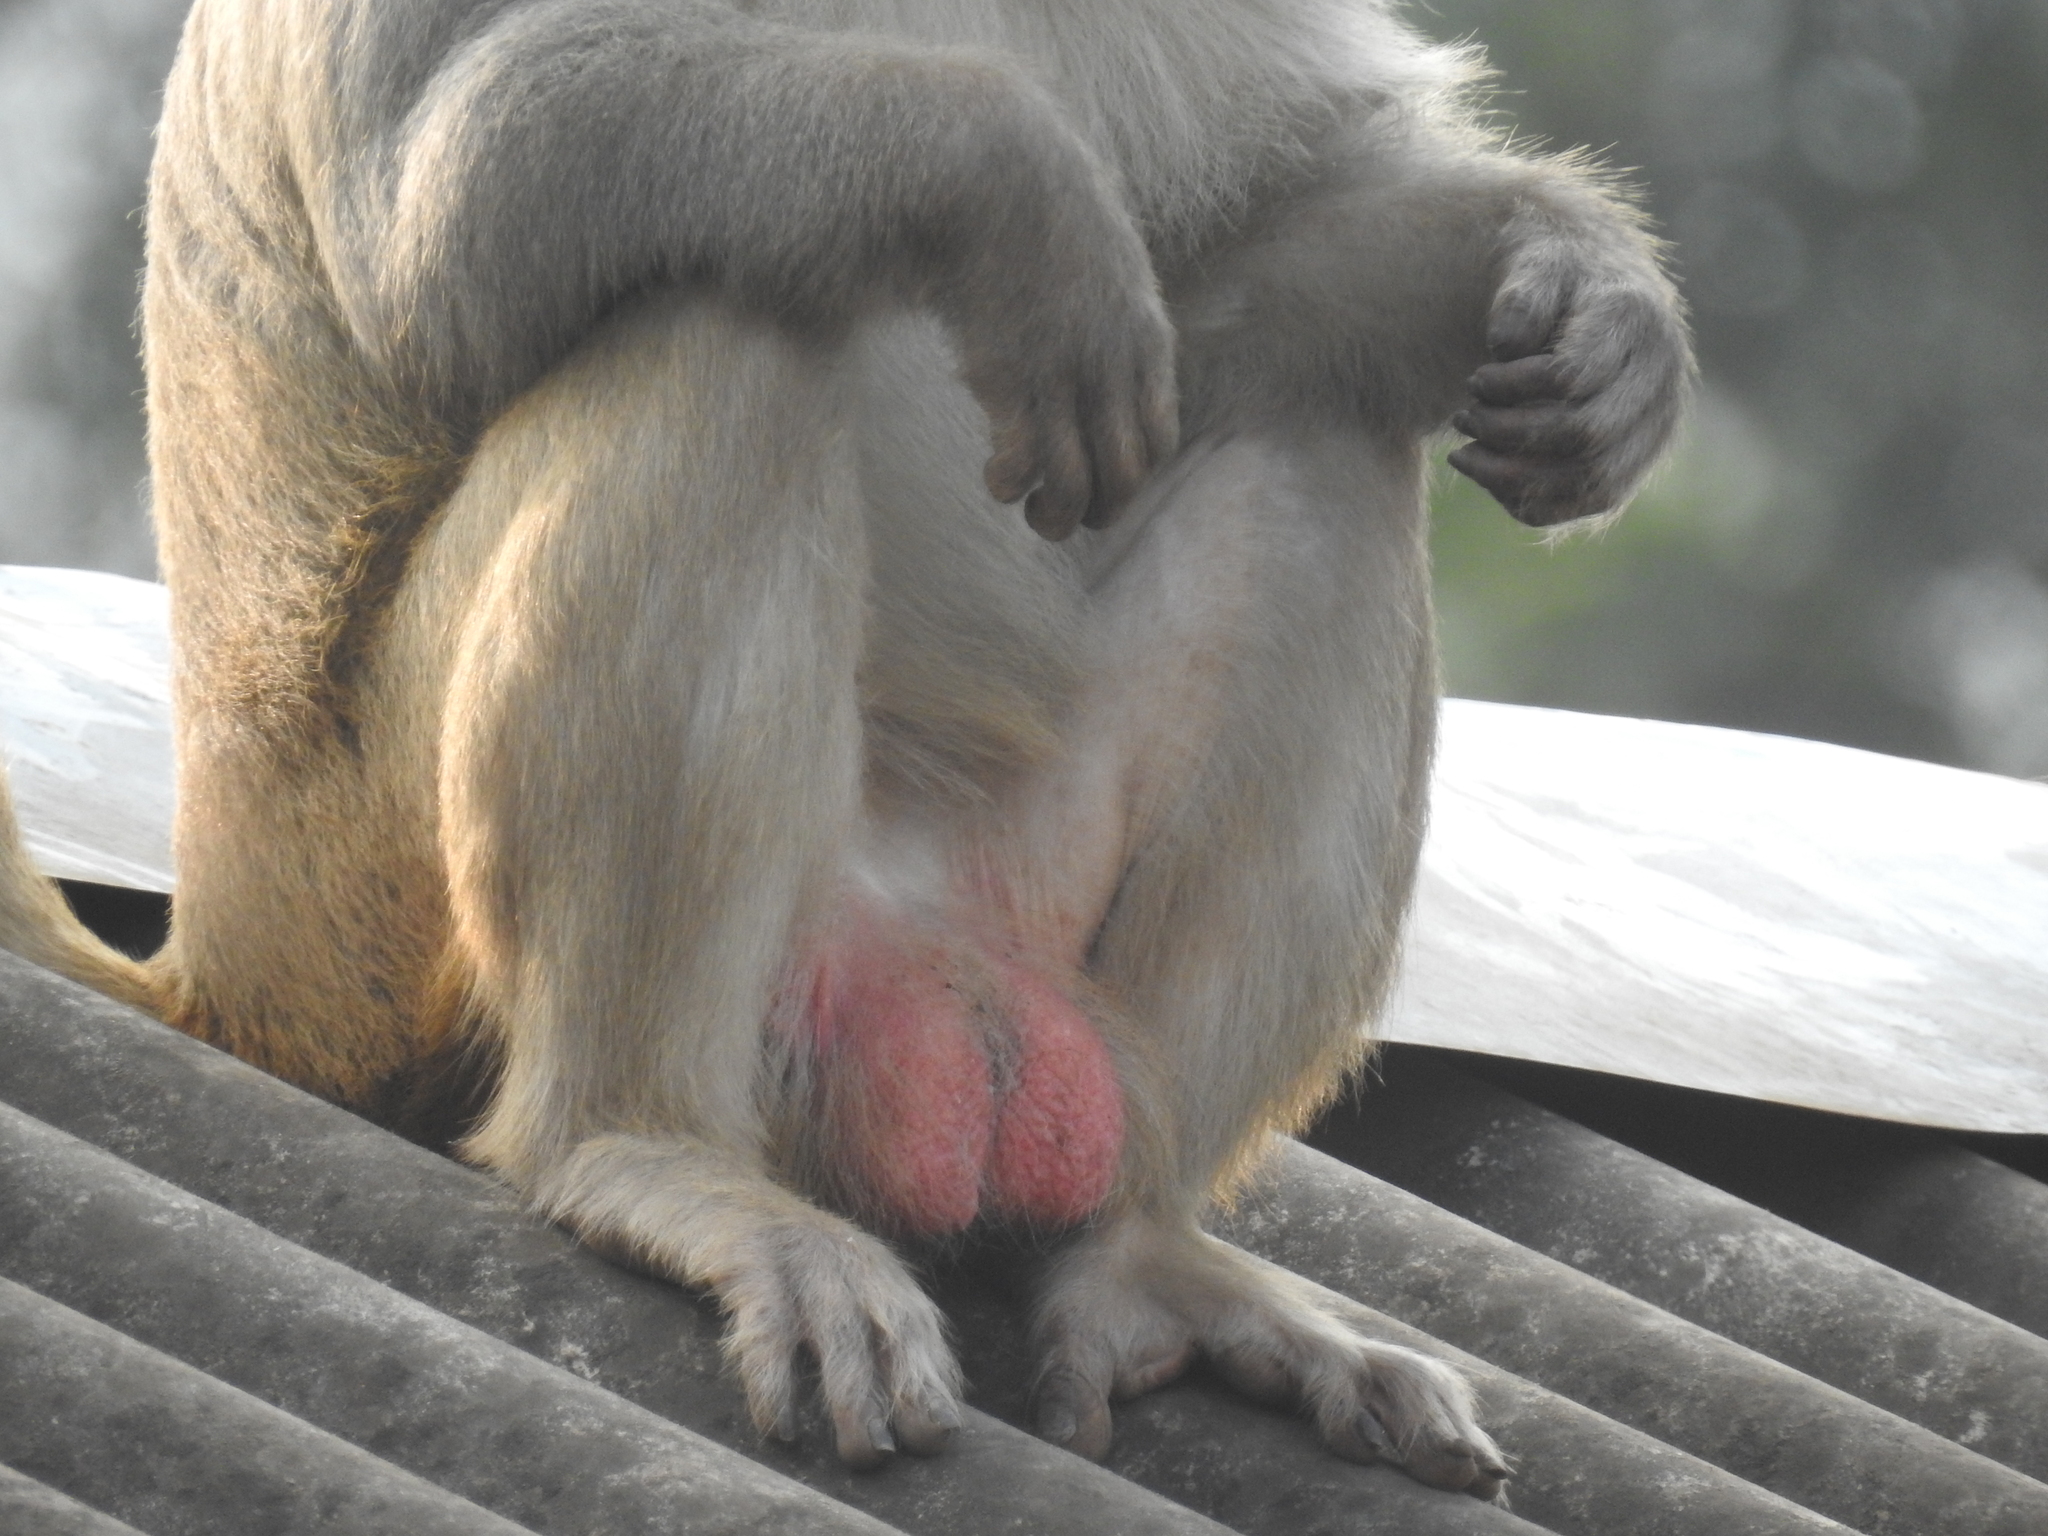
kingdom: Animalia
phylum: Chordata
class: Mammalia
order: Primates
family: Cercopithecidae
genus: Macaca
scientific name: Macaca mulatta
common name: Rhesus monkey
